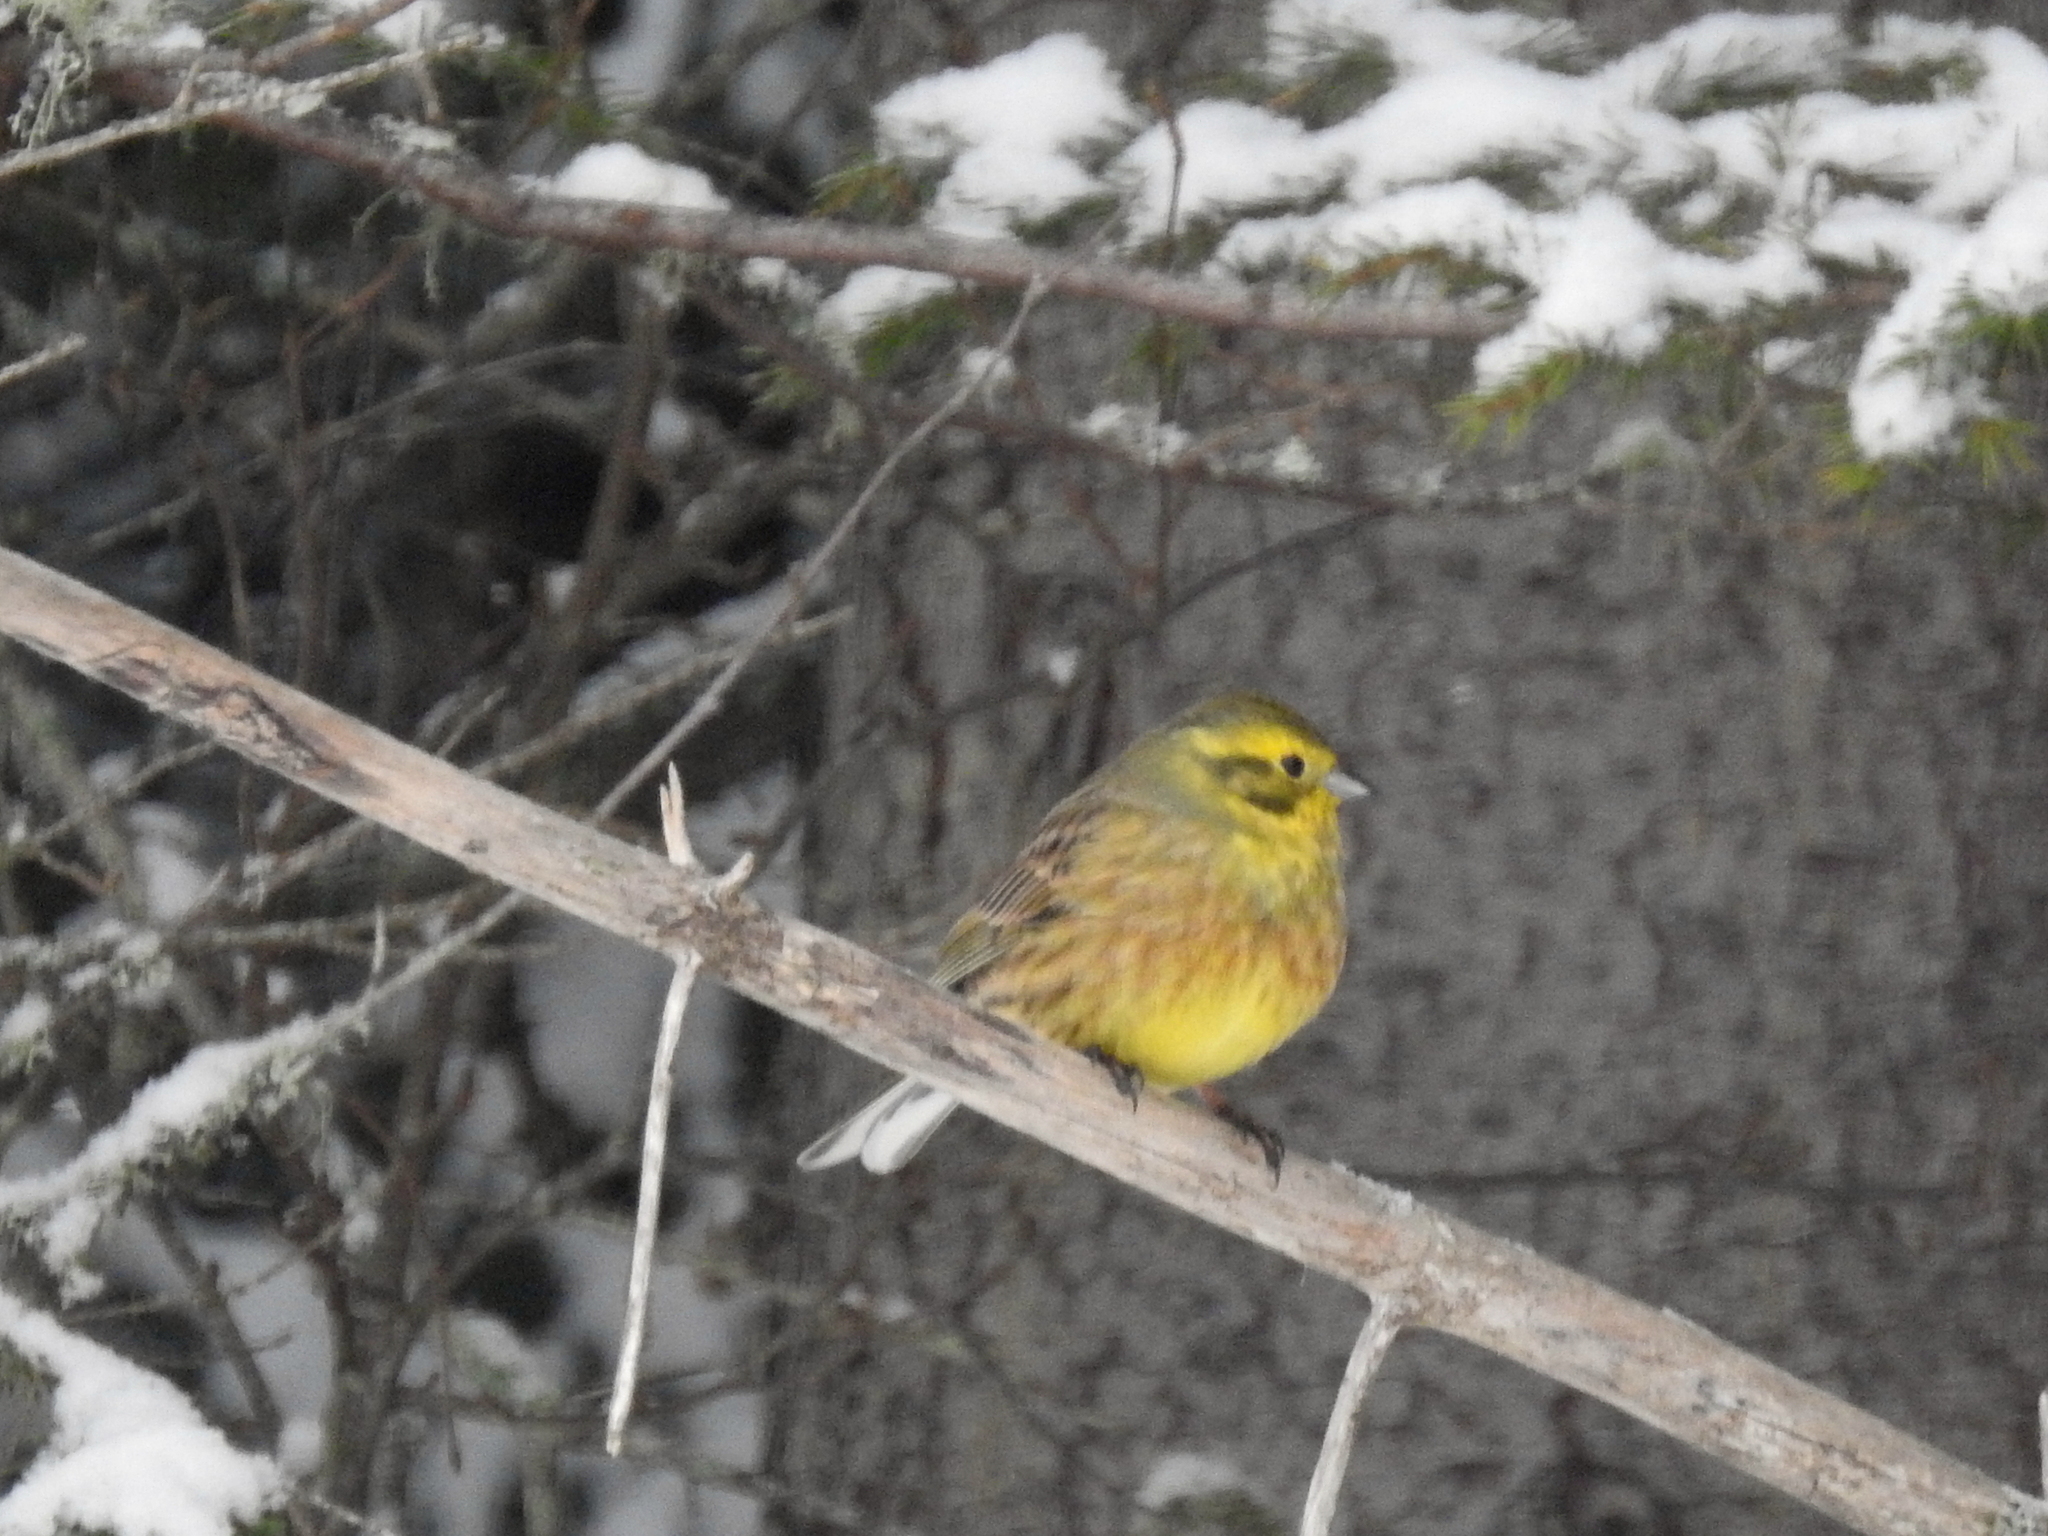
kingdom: Animalia
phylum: Chordata
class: Aves
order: Passeriformes
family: Emberizidae
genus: Emberiza
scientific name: Emberiza citrinella
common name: Yellowhammer
